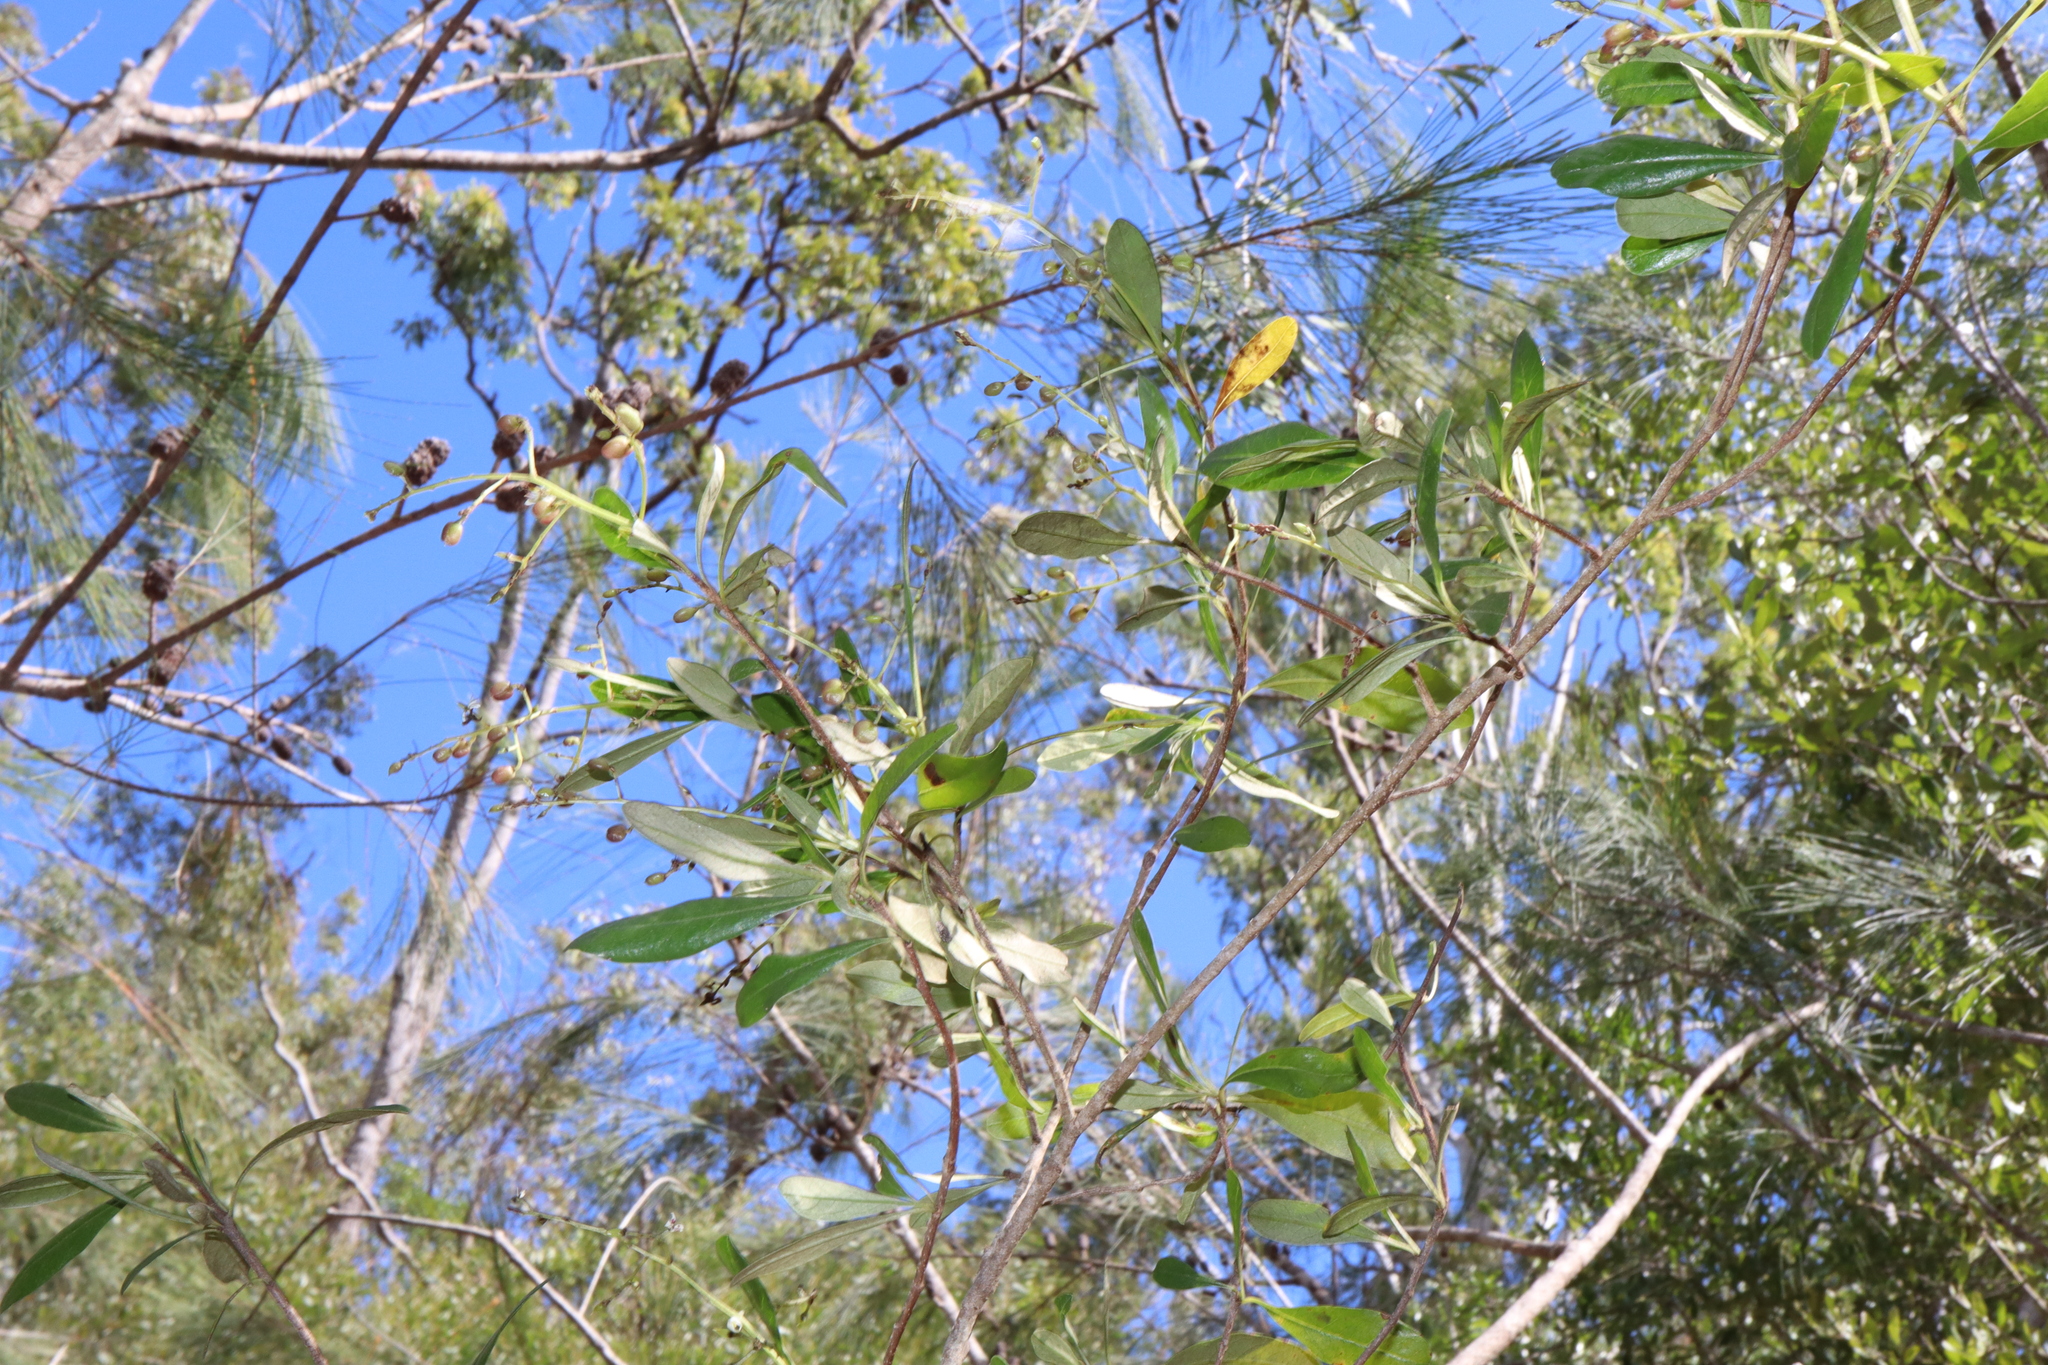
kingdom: Plantae
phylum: Tracheophyta
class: Magnoliopsida
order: Apiales
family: Pittosporaceae
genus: Bursaria
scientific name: Bursaria tenuifolia
